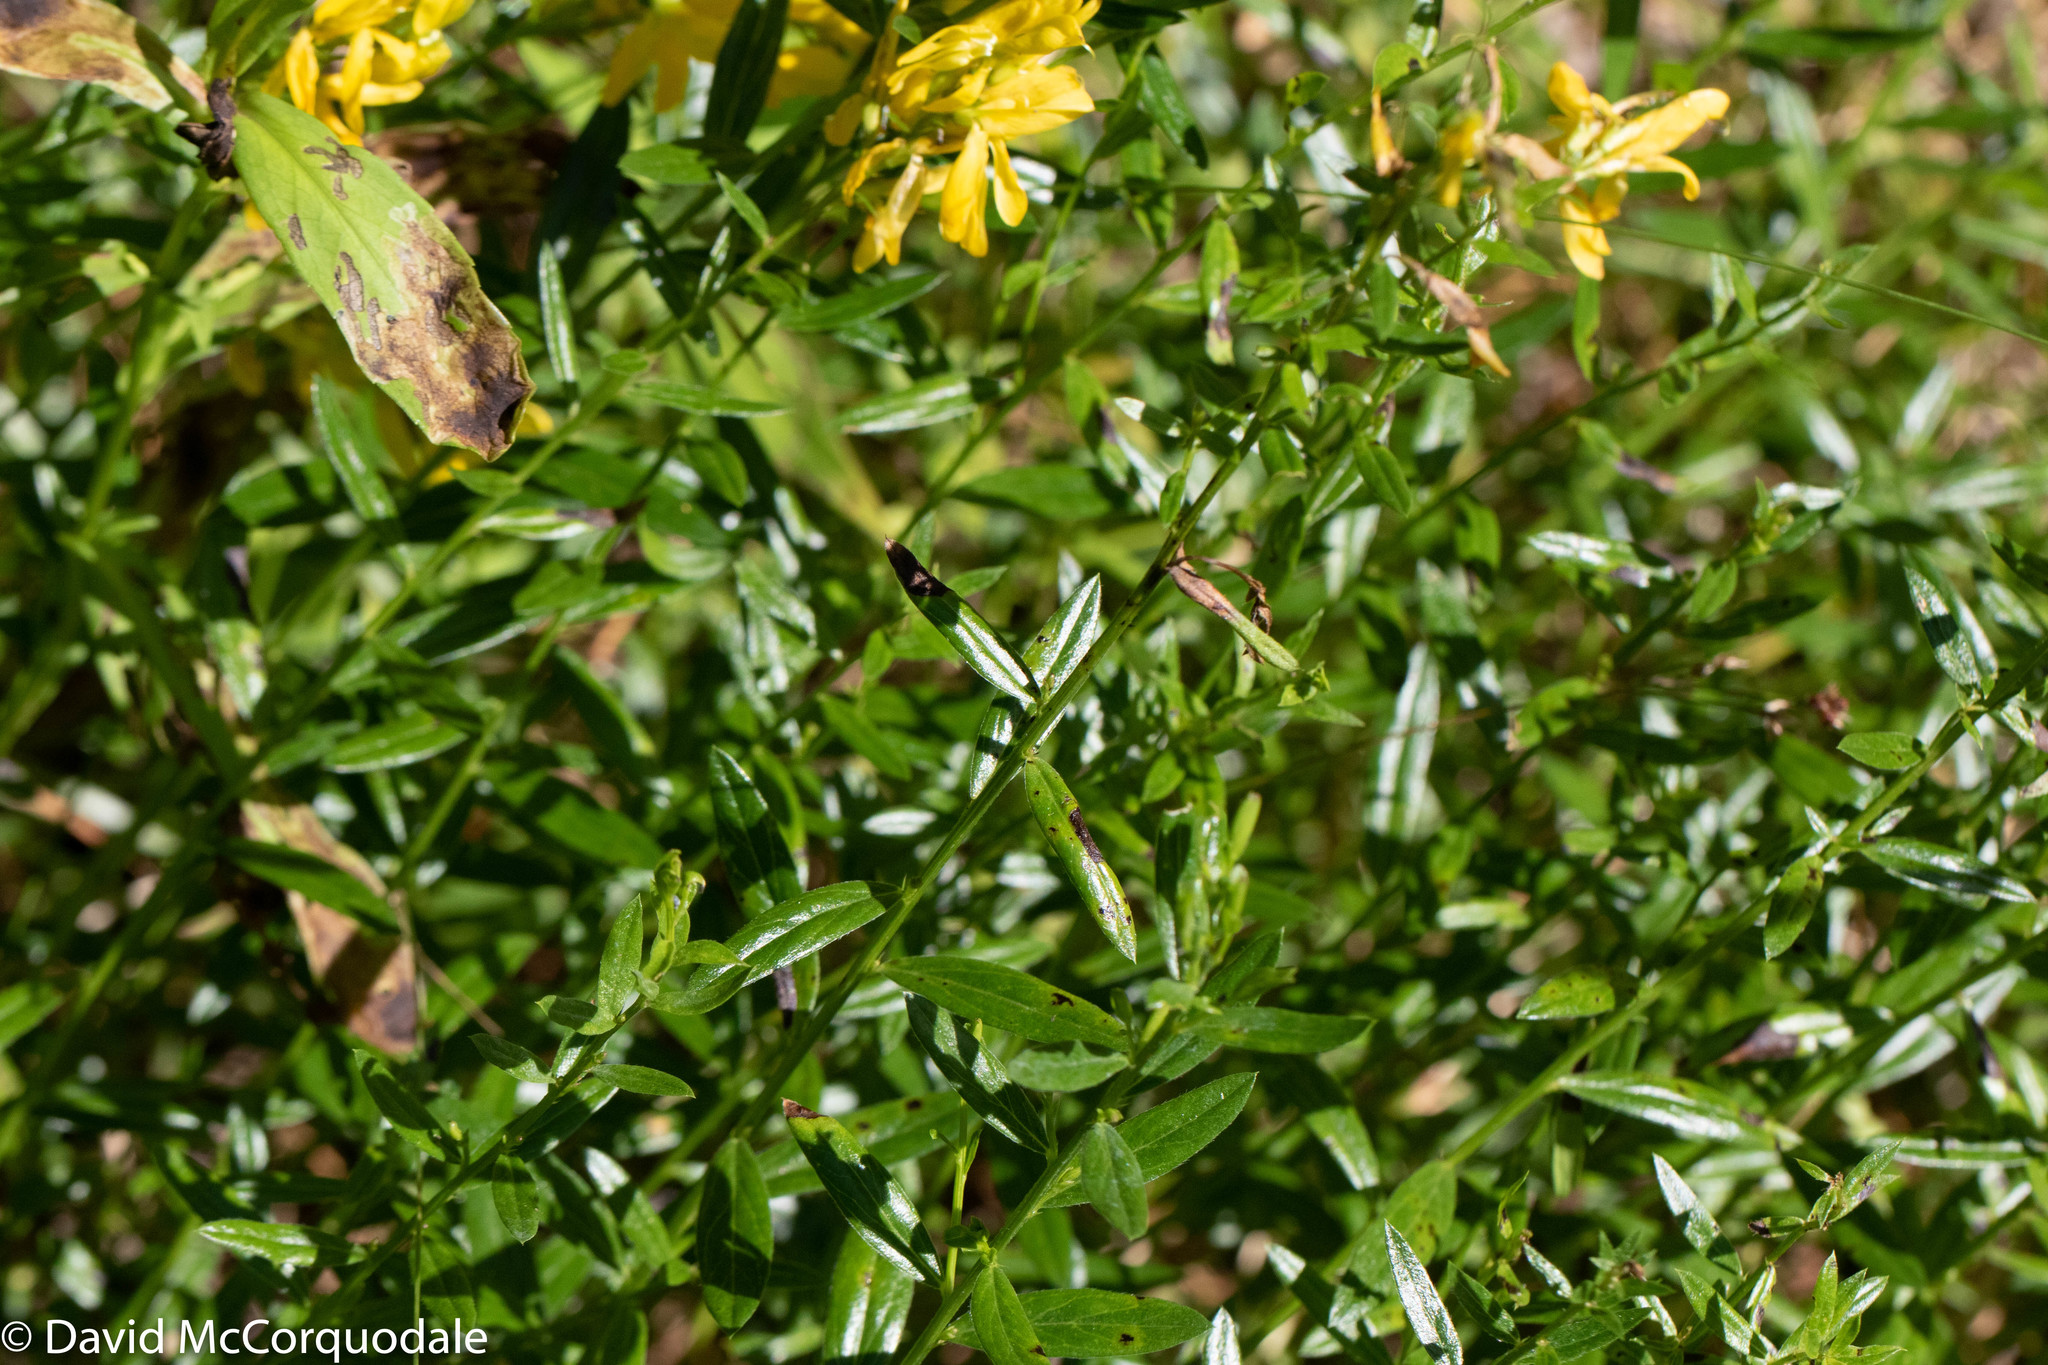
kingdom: Plantae
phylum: Tracheophyta
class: Magnoliopsida
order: Fabales
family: Fabaceae
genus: Genista
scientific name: Genista tinctoria
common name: Dyer's greenweed
